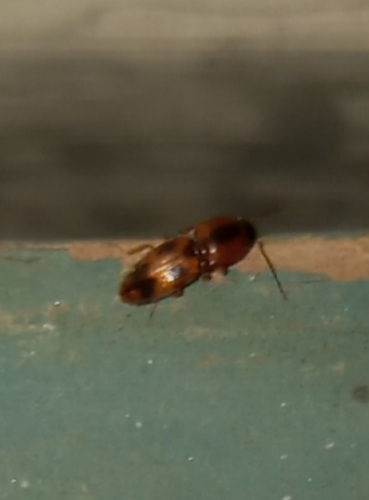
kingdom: Animalia
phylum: Arthropoda
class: Insecta
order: Coleoptera
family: Elateridae
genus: Aeolus
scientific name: Aeolus mellillus
